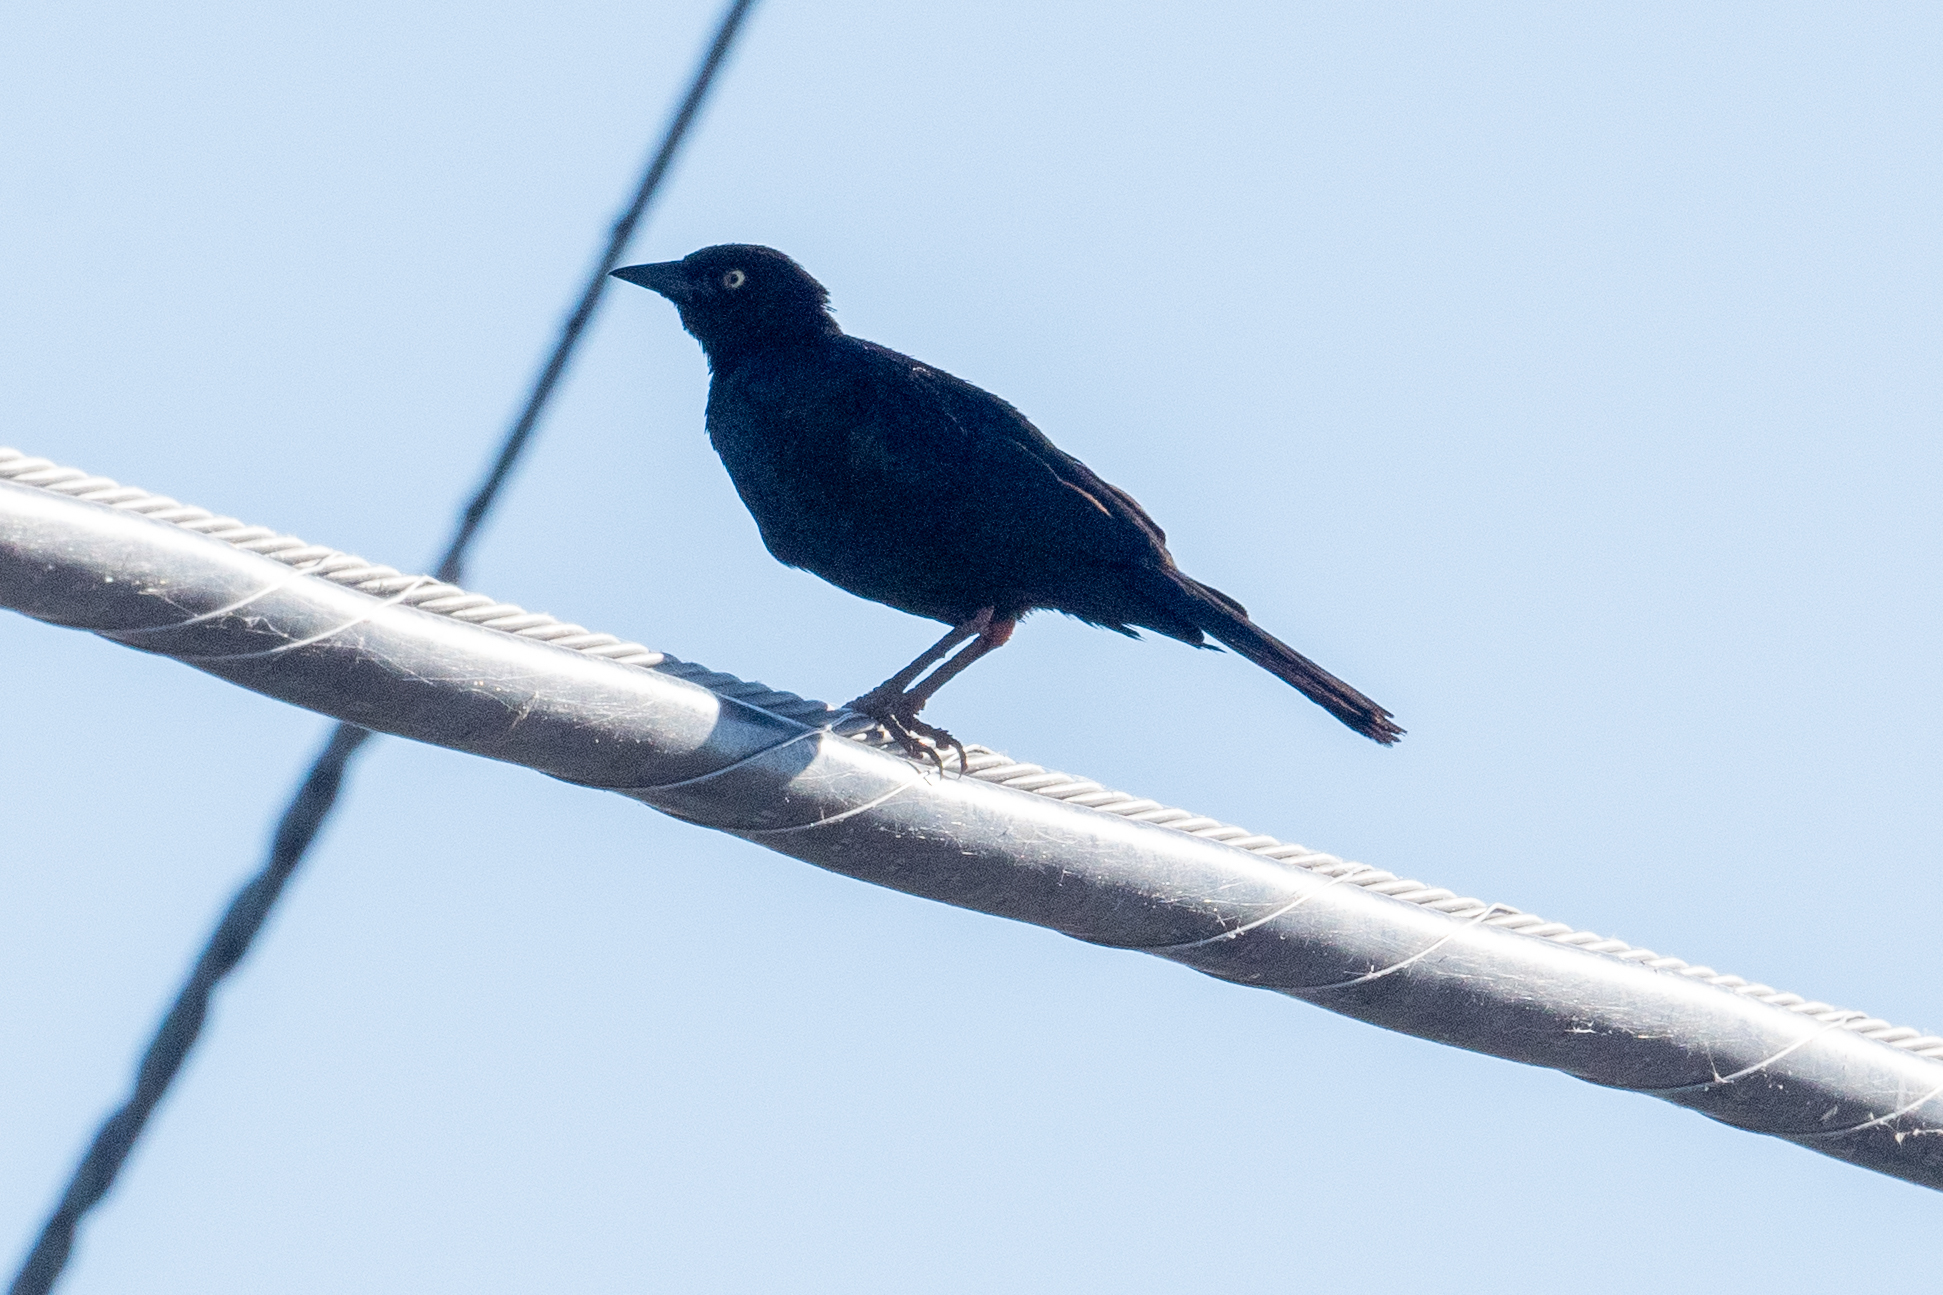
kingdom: Animalia
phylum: Chordata
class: Aves
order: Passeriformes
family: Icteridae
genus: Euphagus
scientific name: Euphagus cyanocephalus
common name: Brewer's blackbird
